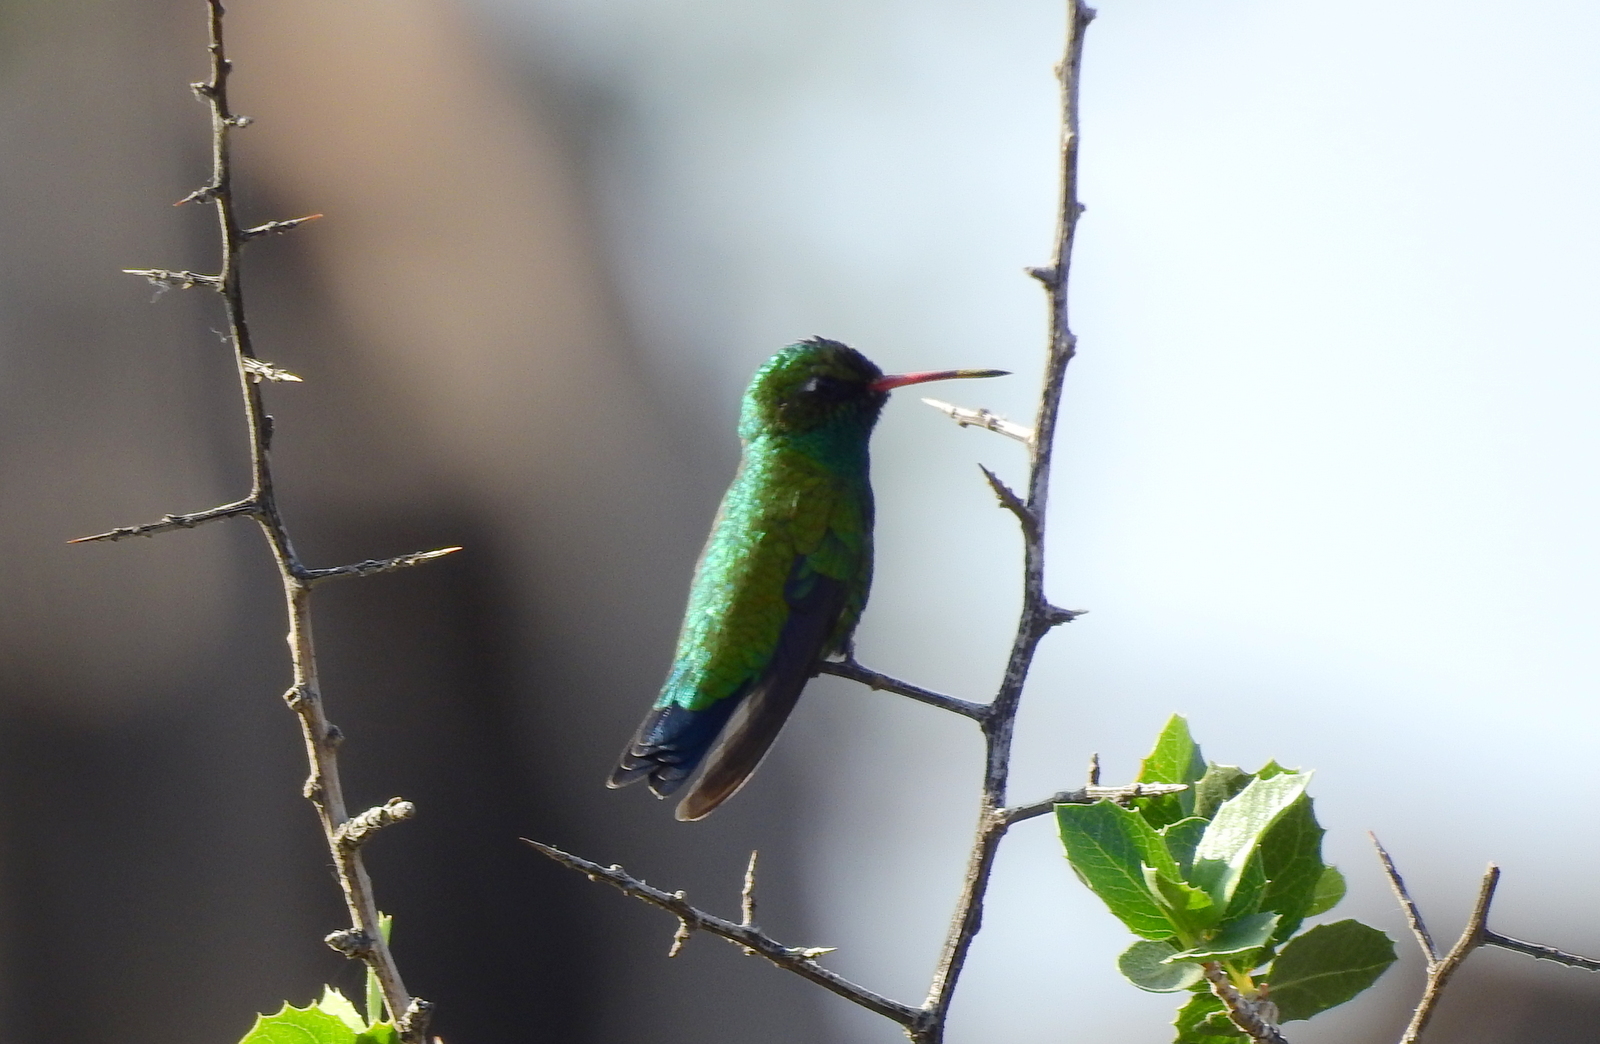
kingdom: Animalia
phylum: Chordata
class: Aves
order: Apodiformes
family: Trochilidae
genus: Chlorostilbon
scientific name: Chlorostilbon lucidus
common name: Glittering-bellied emerald
